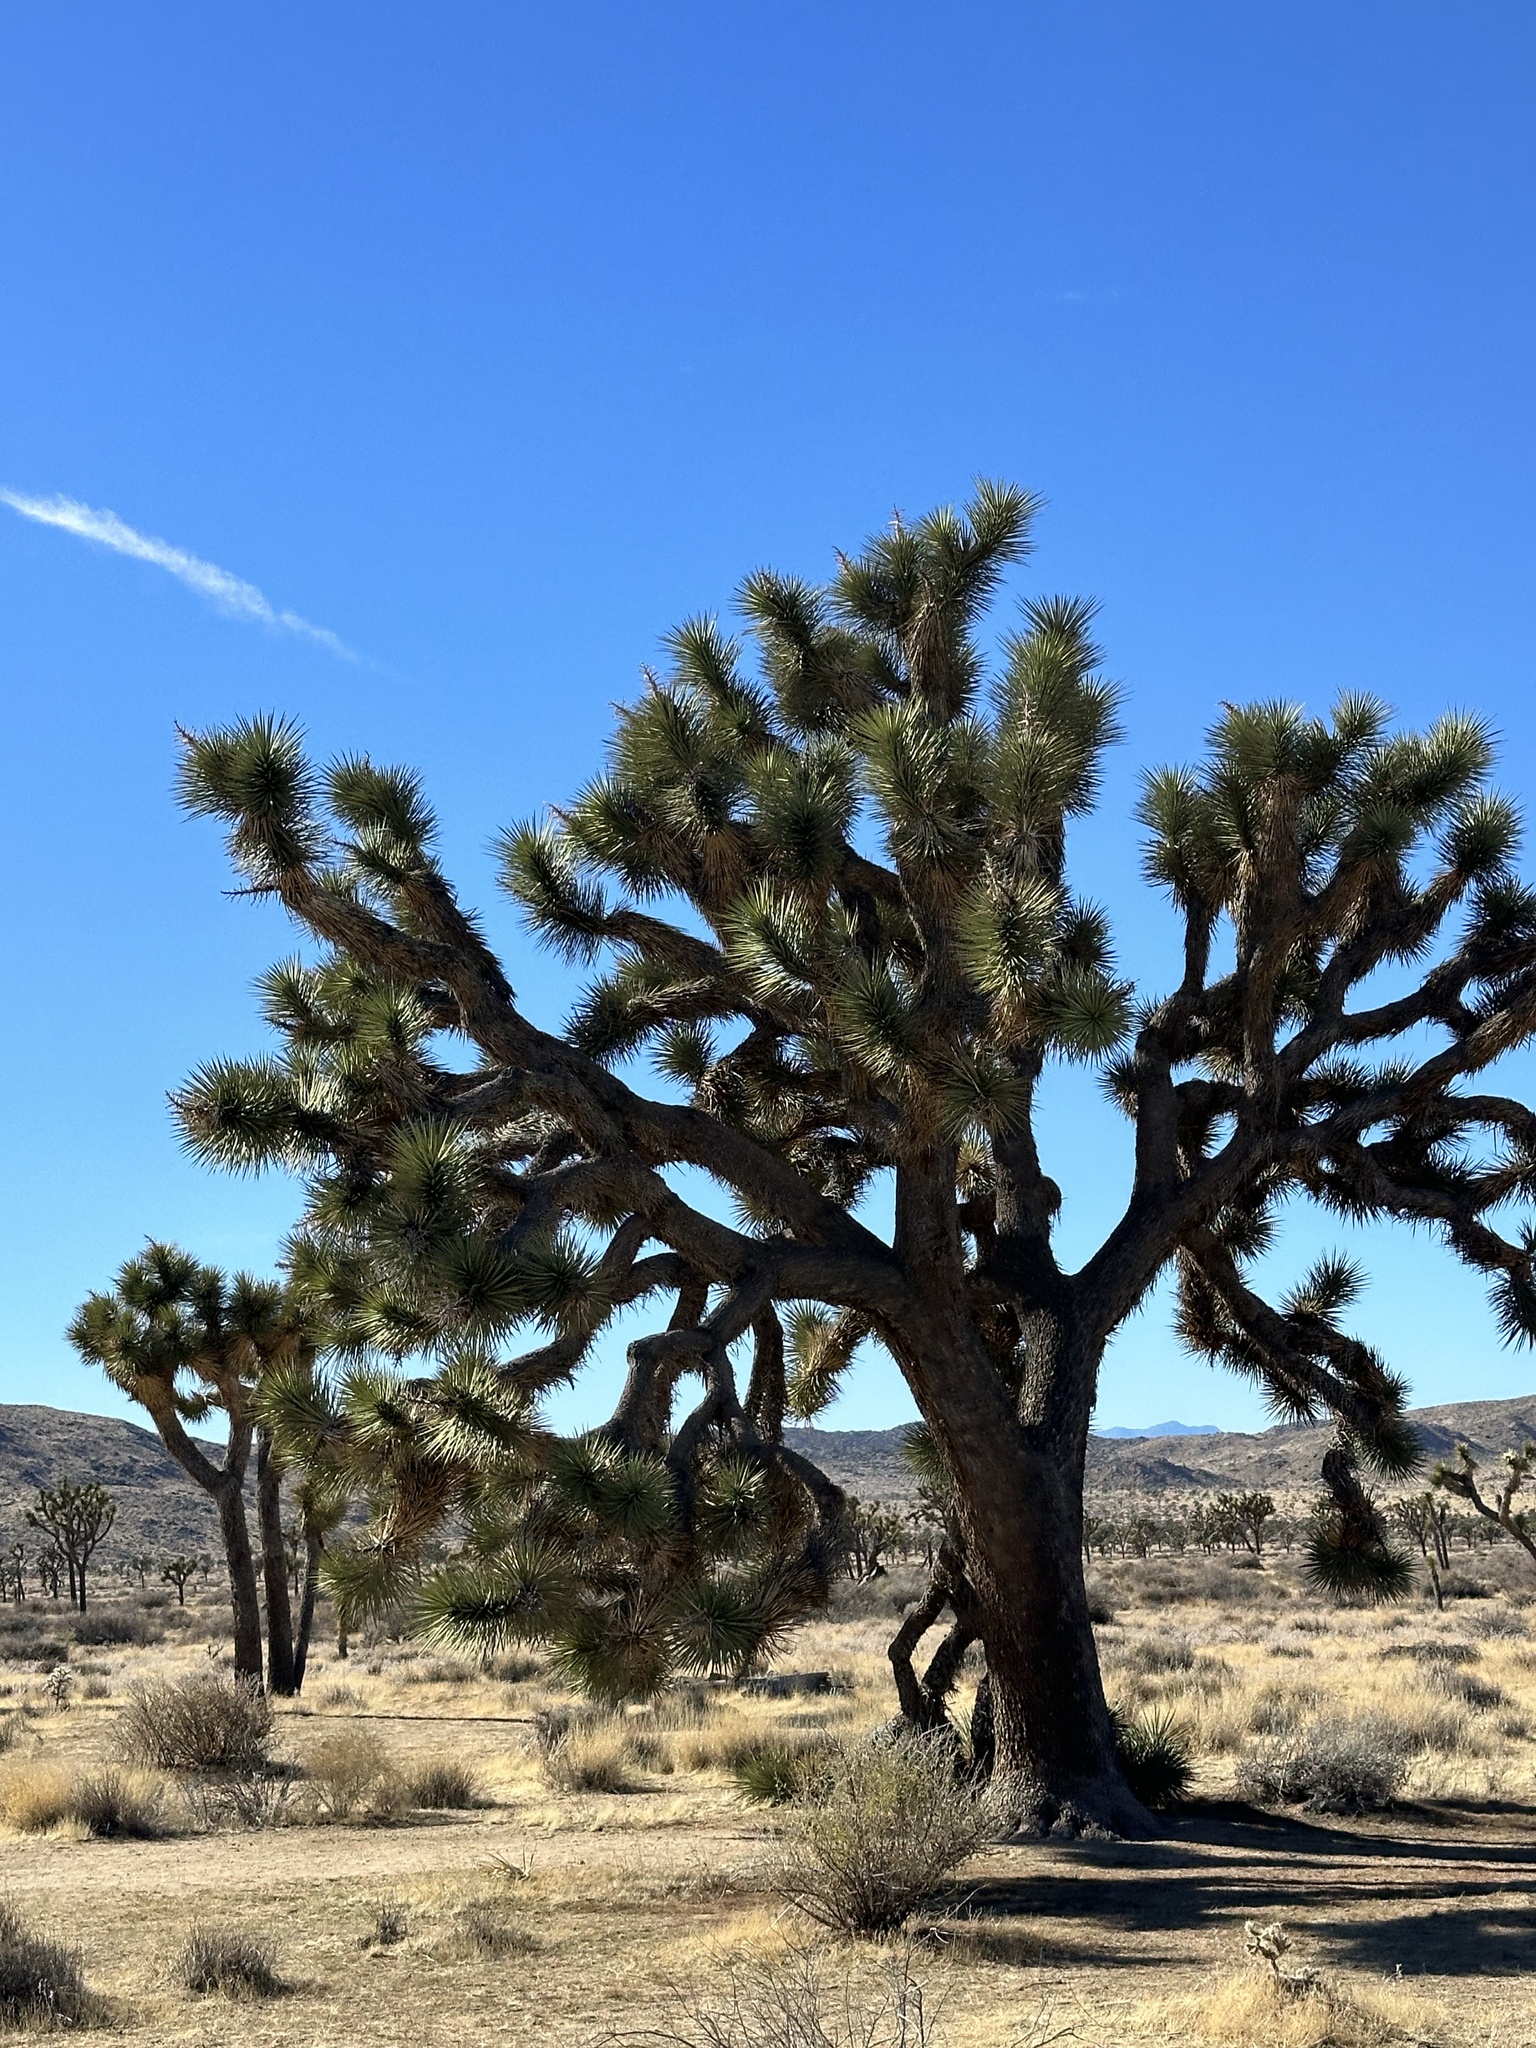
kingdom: Plantae
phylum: Tracheophyta
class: Liliopsida
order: Asparagales
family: Asparagaceae
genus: Yucca
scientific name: Yucca brevifolia
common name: Joshua tree
